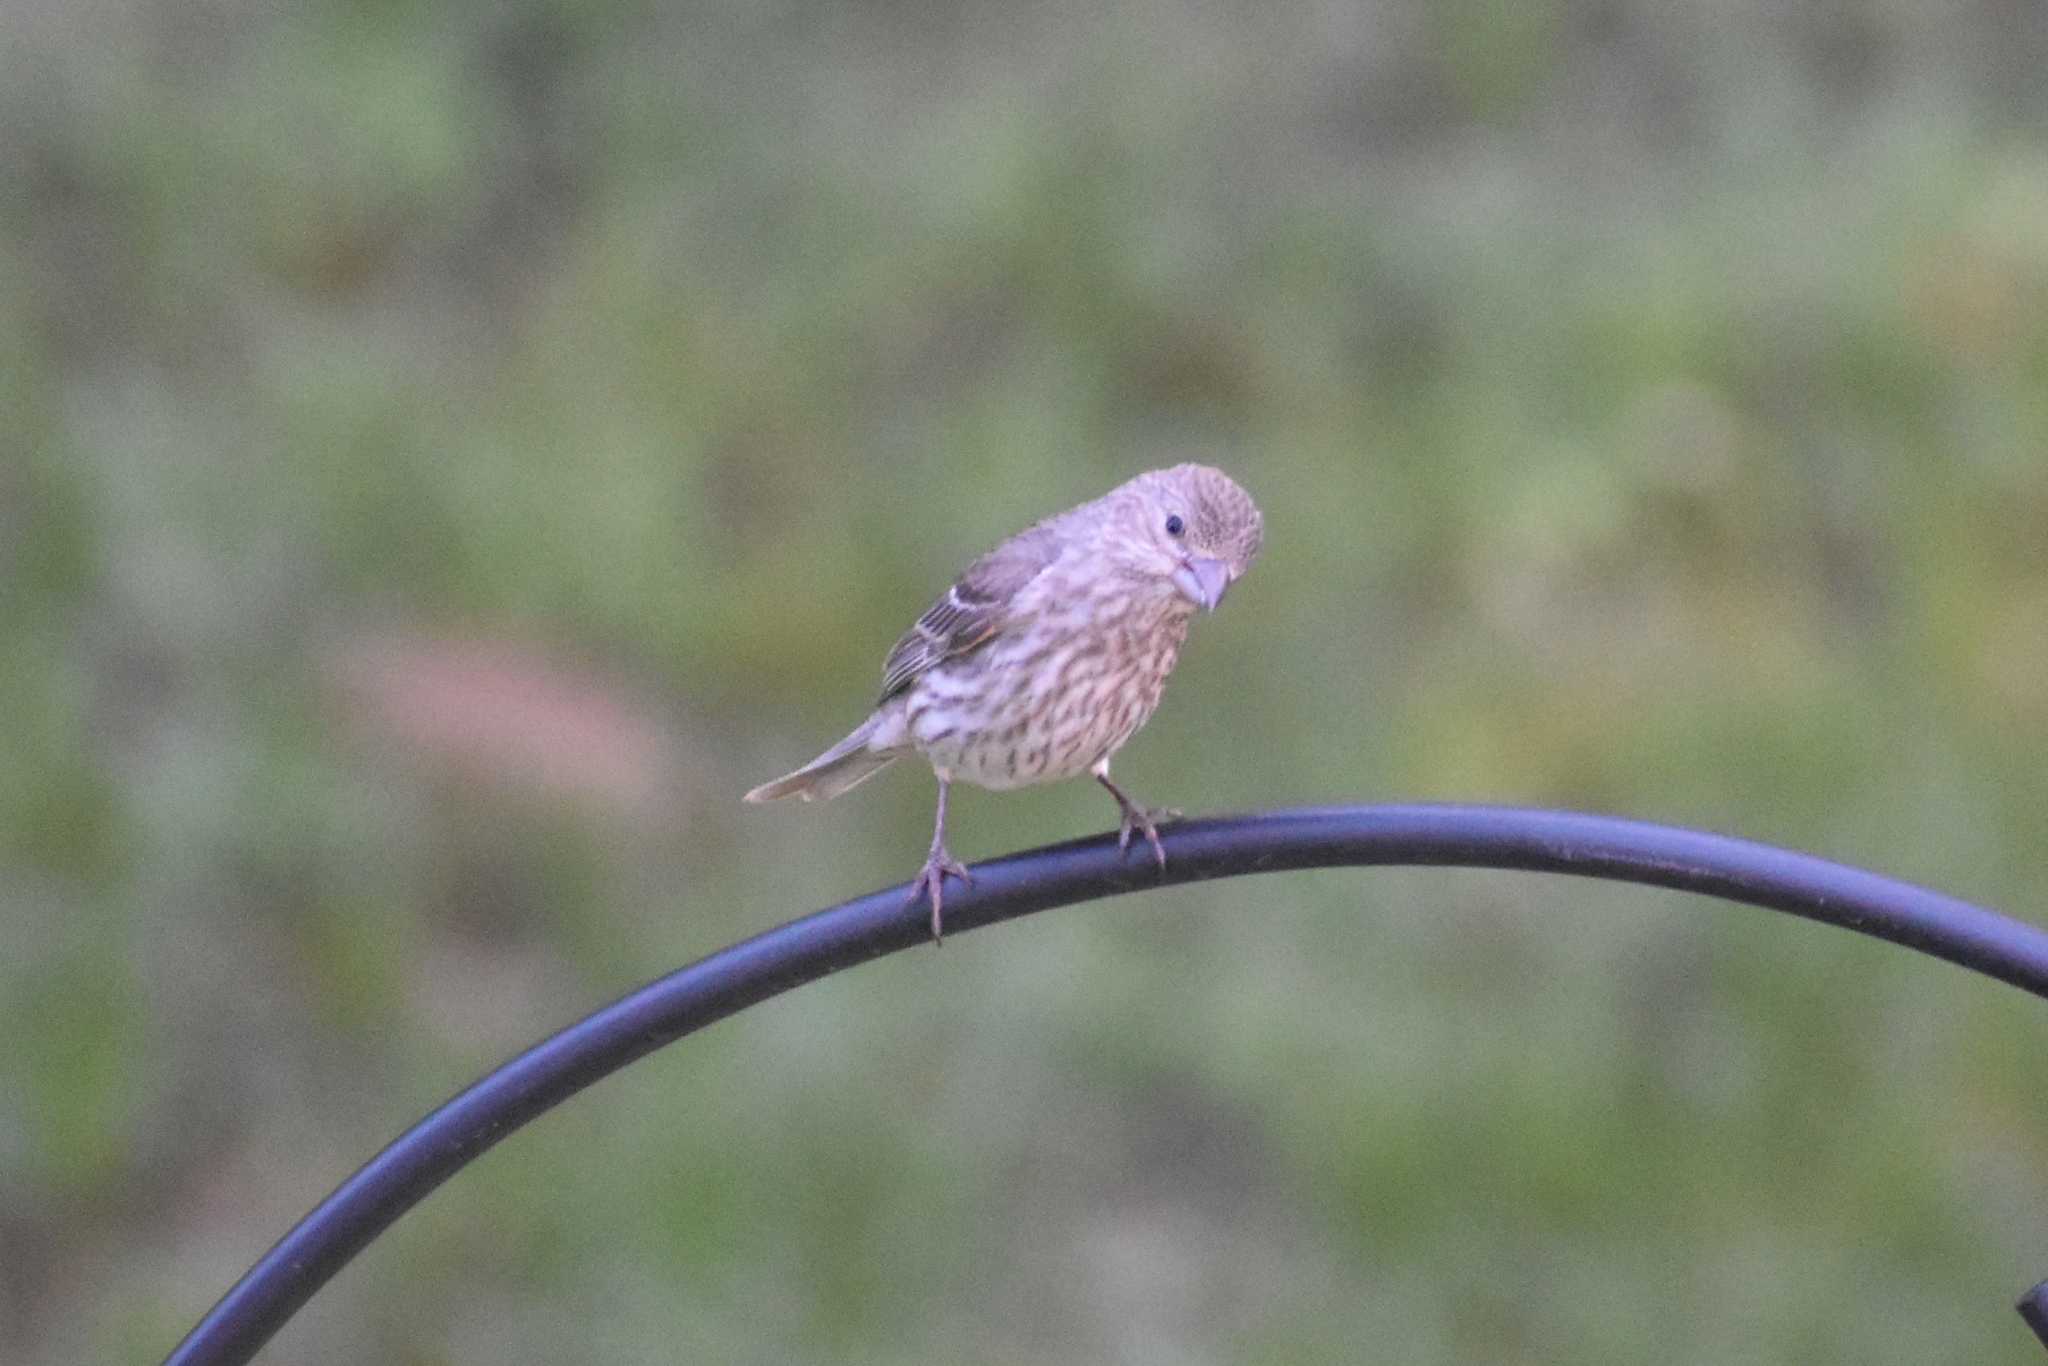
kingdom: Animalia
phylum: Chordata
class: Aves
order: Passeriformes
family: Fringillidae
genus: Haemorhous
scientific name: Haemorhous mexicanus
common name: House finch
